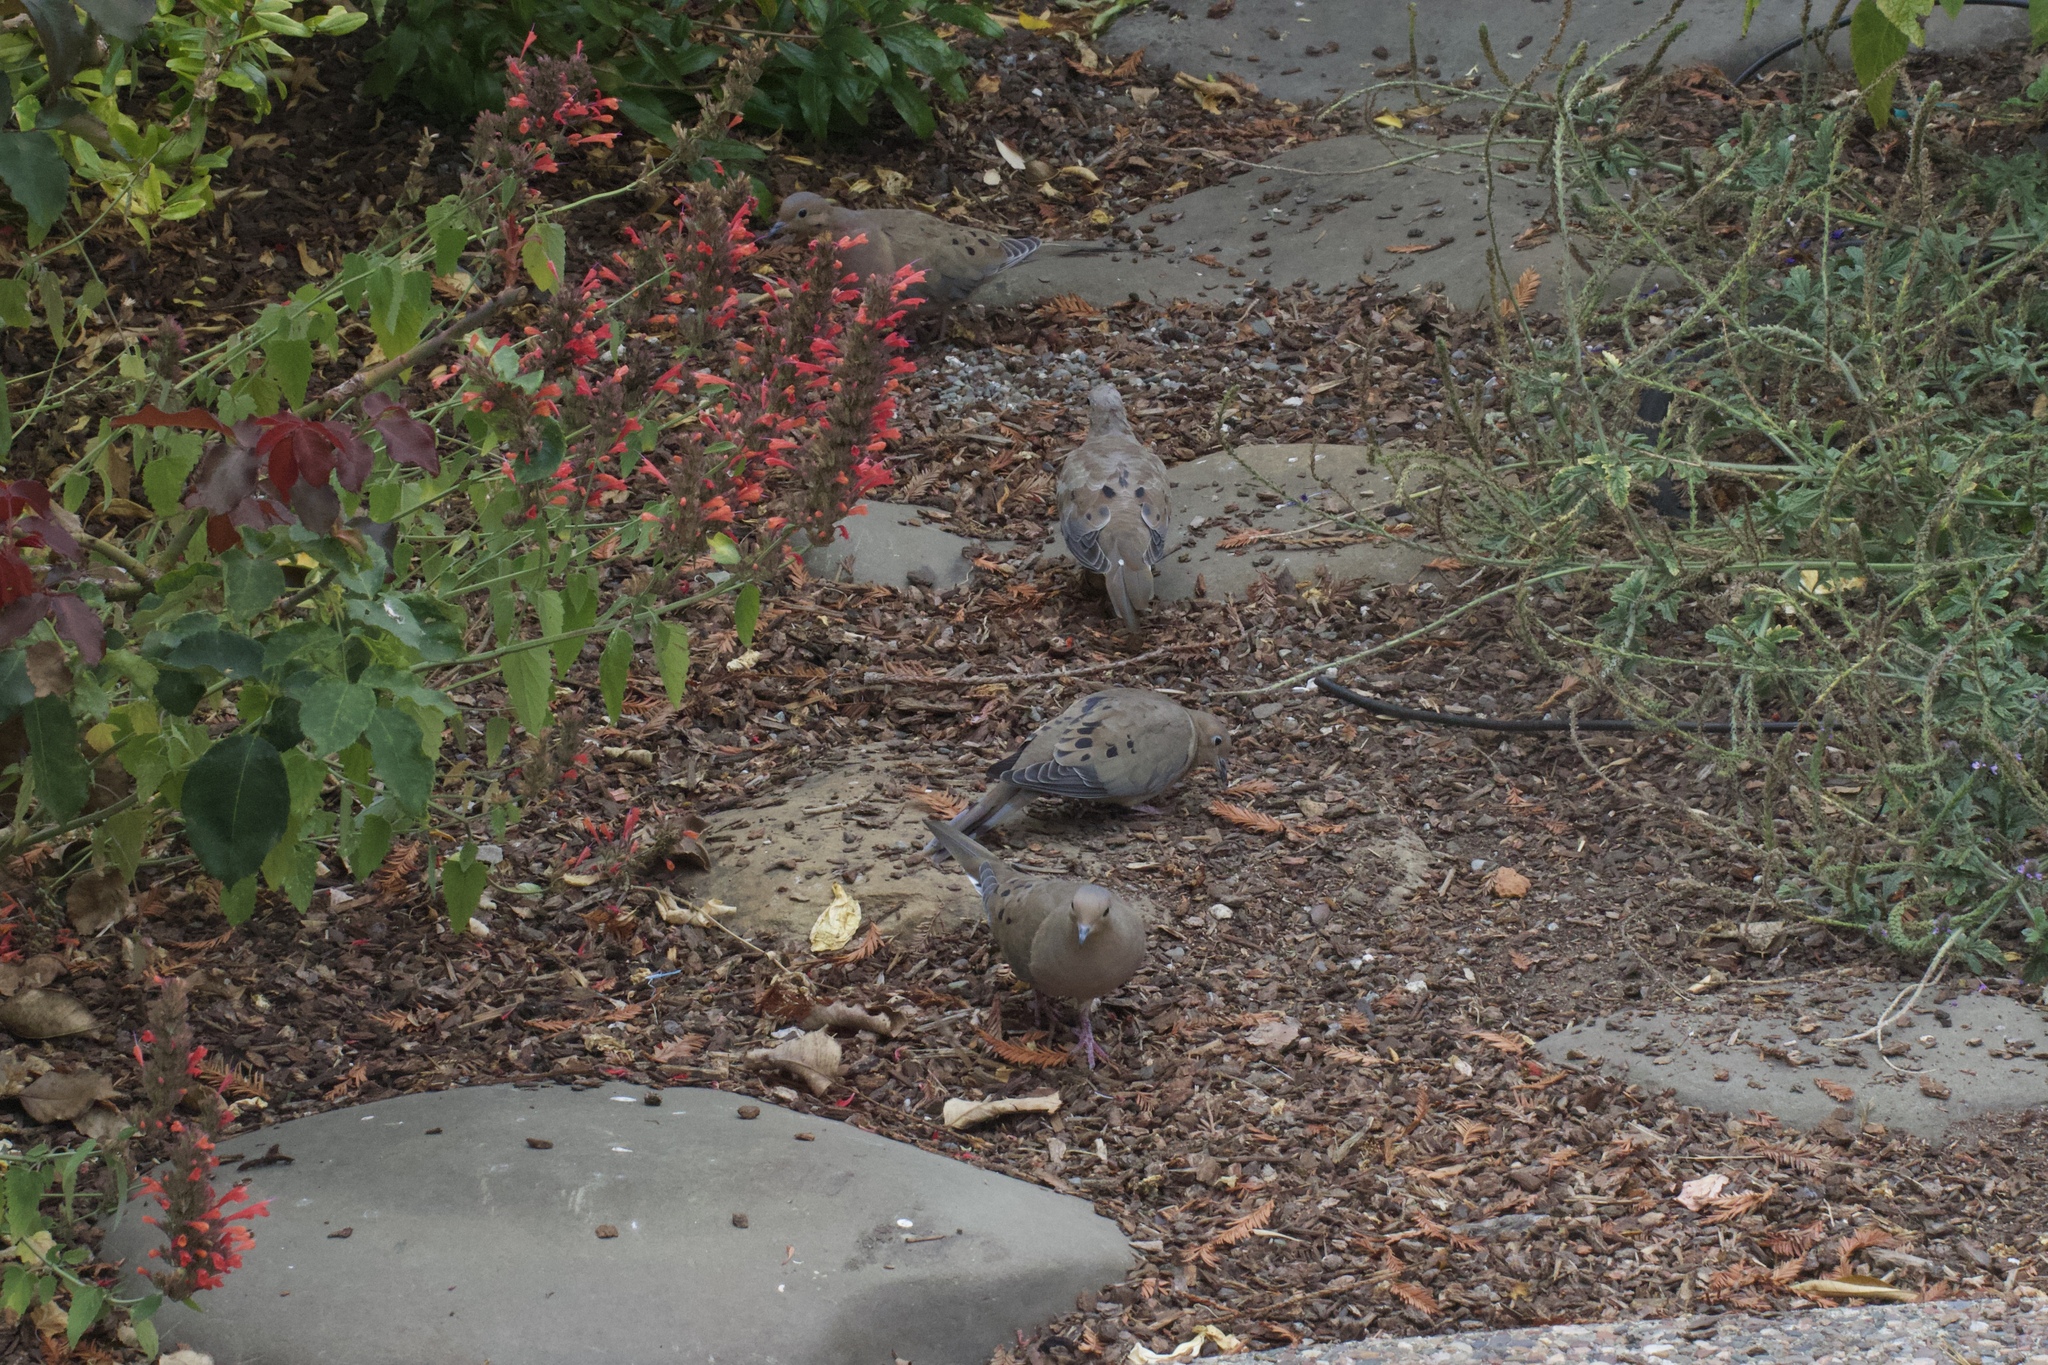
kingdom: Animalia
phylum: Chordata
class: Aves
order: Columbiformes
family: Columbidae
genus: Zenaida
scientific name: Zenaida macroura
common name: Mourning dove
